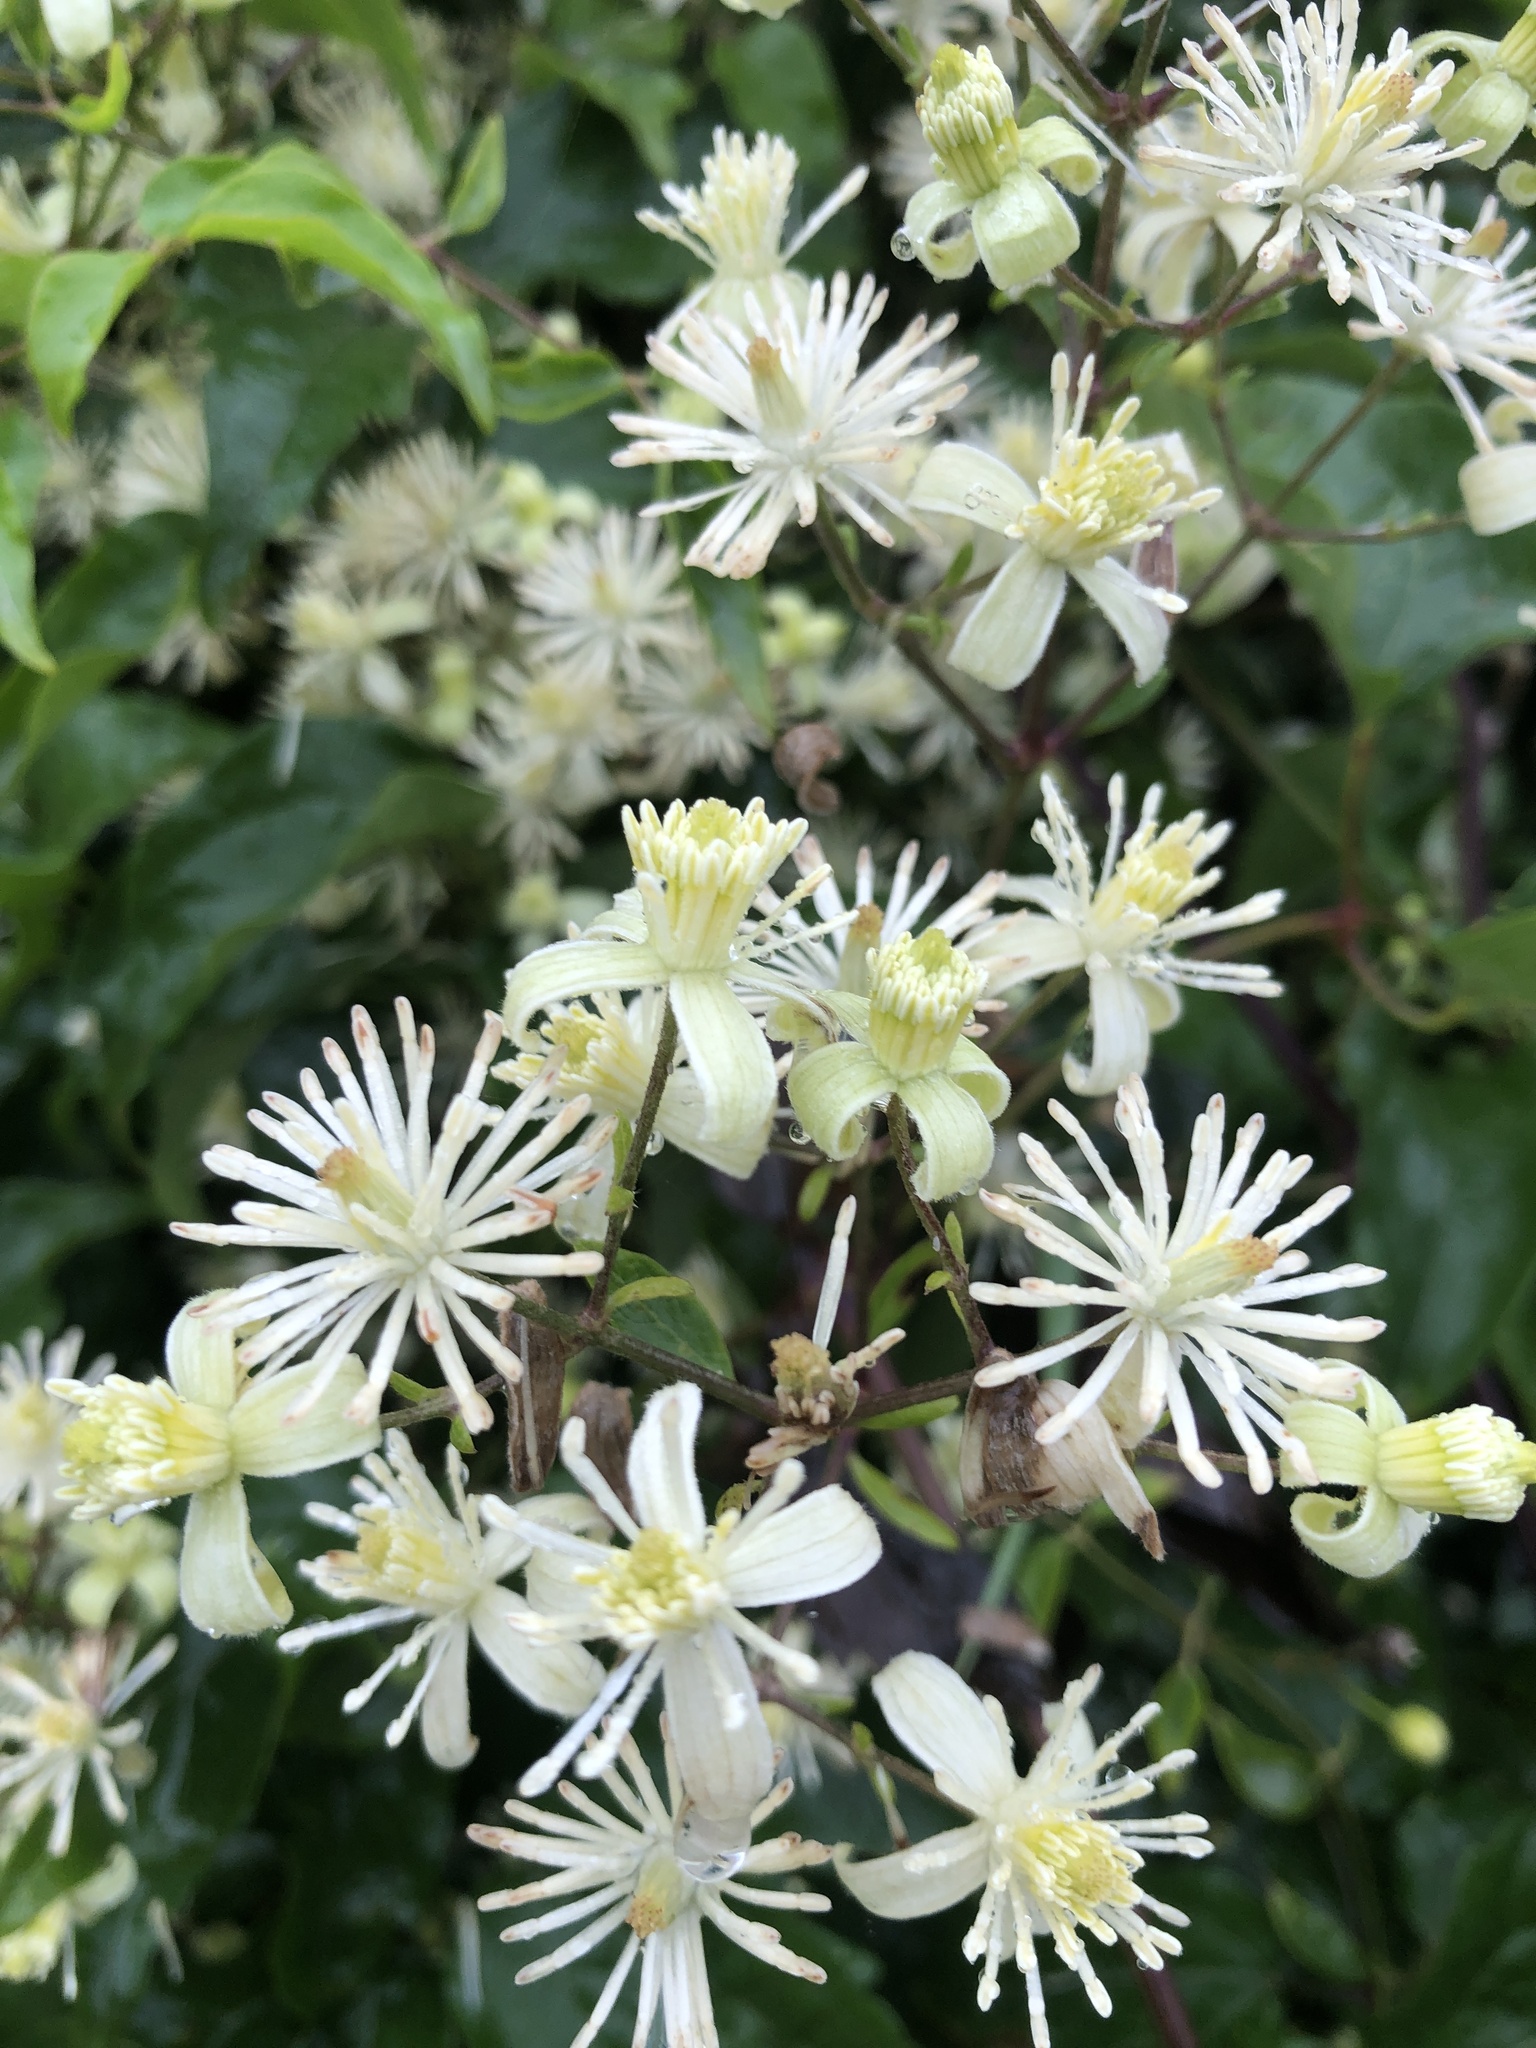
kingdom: Plantae
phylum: Tracheophyta
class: Magnoliopsida
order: Ranunculales
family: Ranunculaceae
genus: Clematis
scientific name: Clematis vitalba
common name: Evergreen clematis
